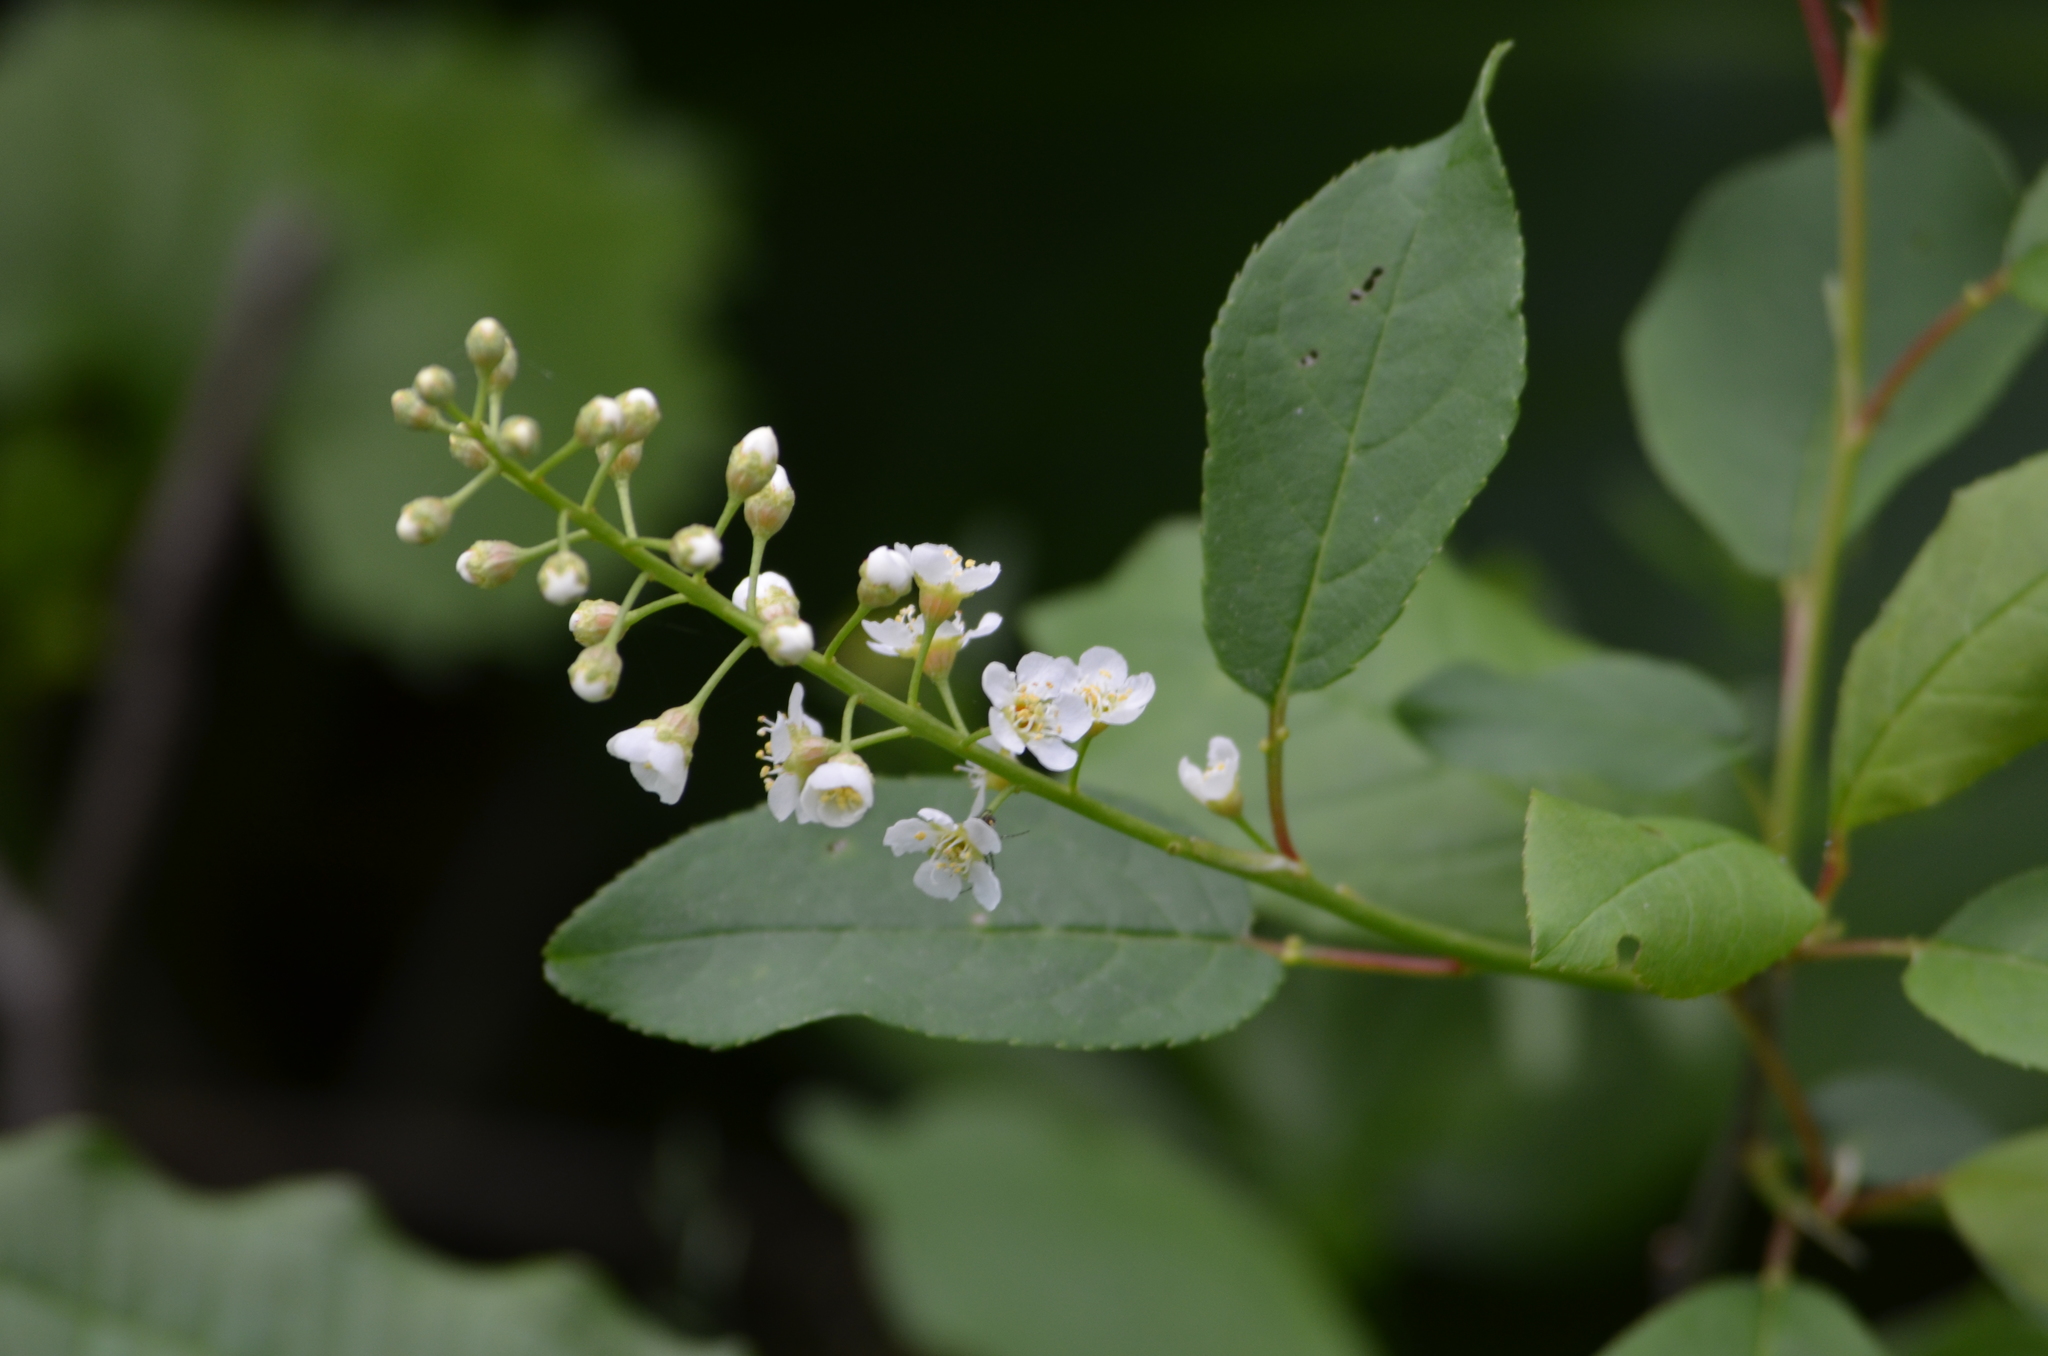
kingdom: Plantae
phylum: Tracheophyta
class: Magnoliopsida
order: Rosales
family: Rosaceae
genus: Prunus
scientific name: Prunus serotina
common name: Black cherry
